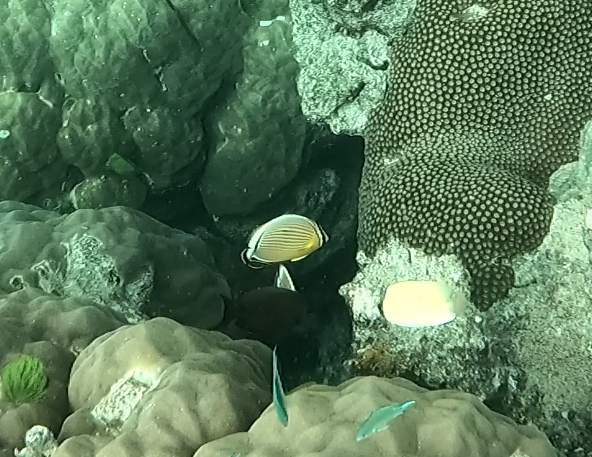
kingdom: Animalia
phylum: Chordata
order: Perciformes
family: Chaetodontidae
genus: Chaetodon
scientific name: Chaetodon lunulatus
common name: Redfin butterflyfish
